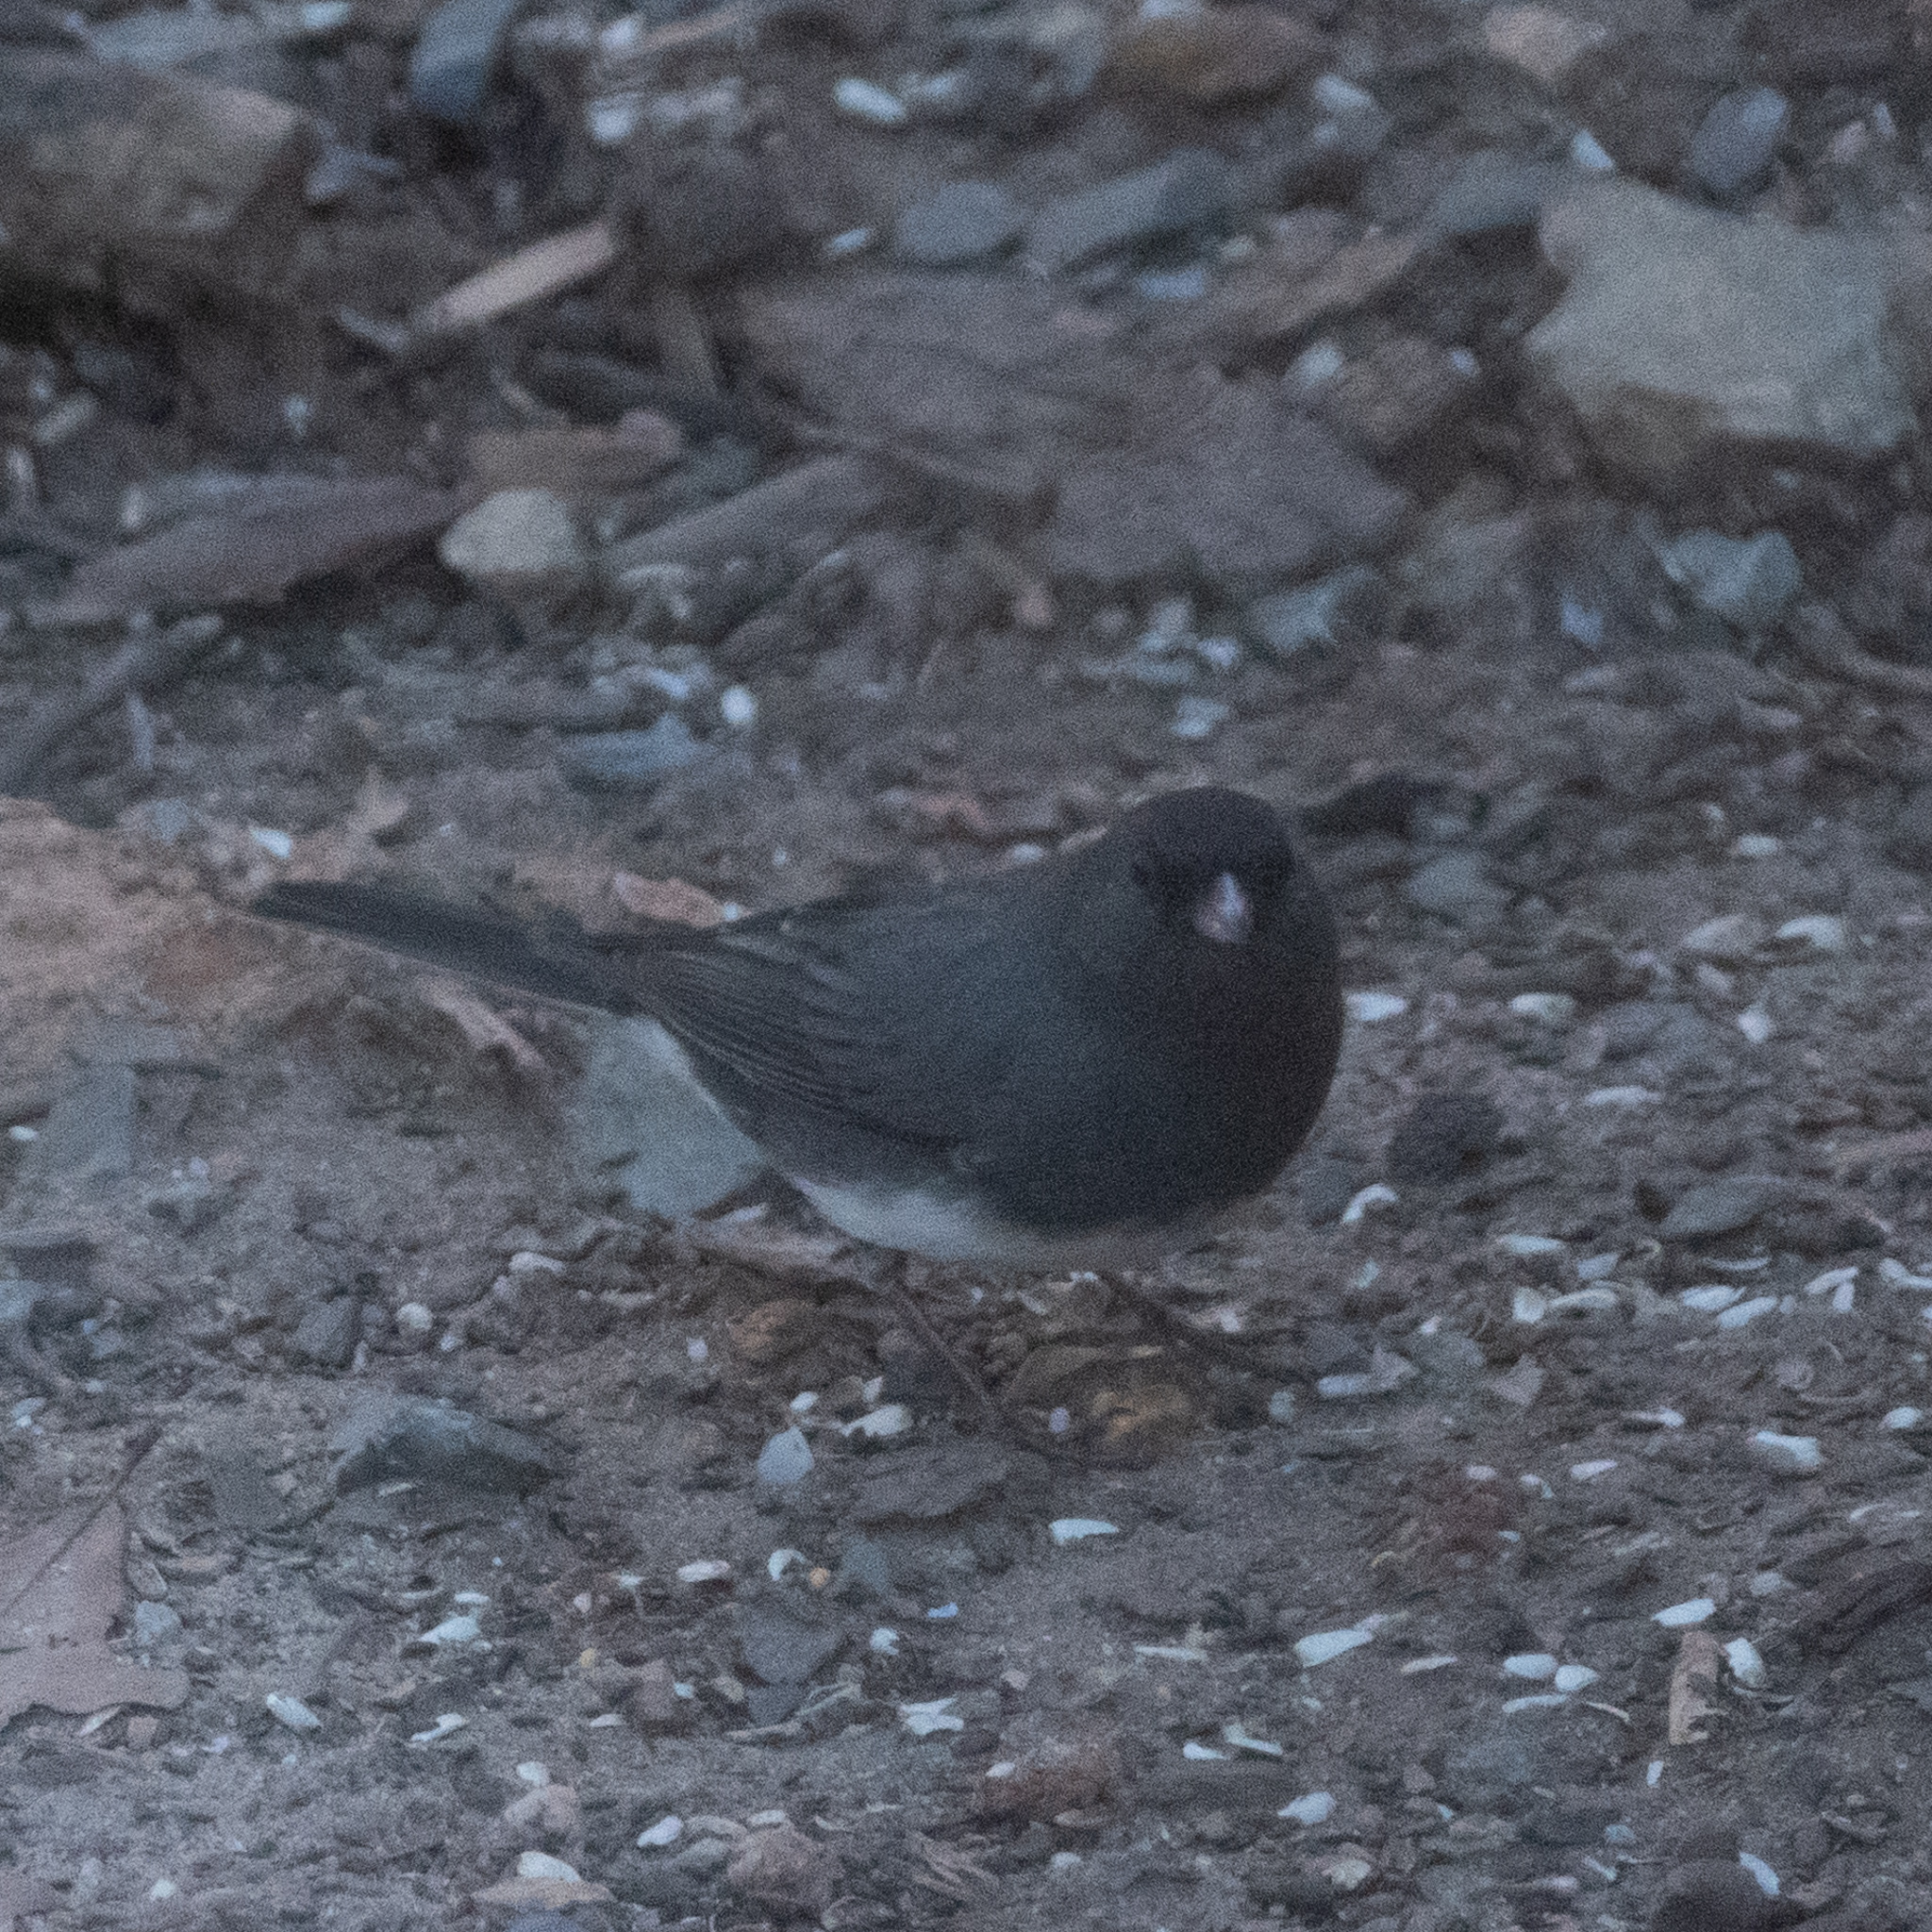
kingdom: Animalia
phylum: Chordata
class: Aves
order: Passeriformes
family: Passerellidae
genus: Junco
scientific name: Junco hyemalis
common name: Dark-eyed junco
